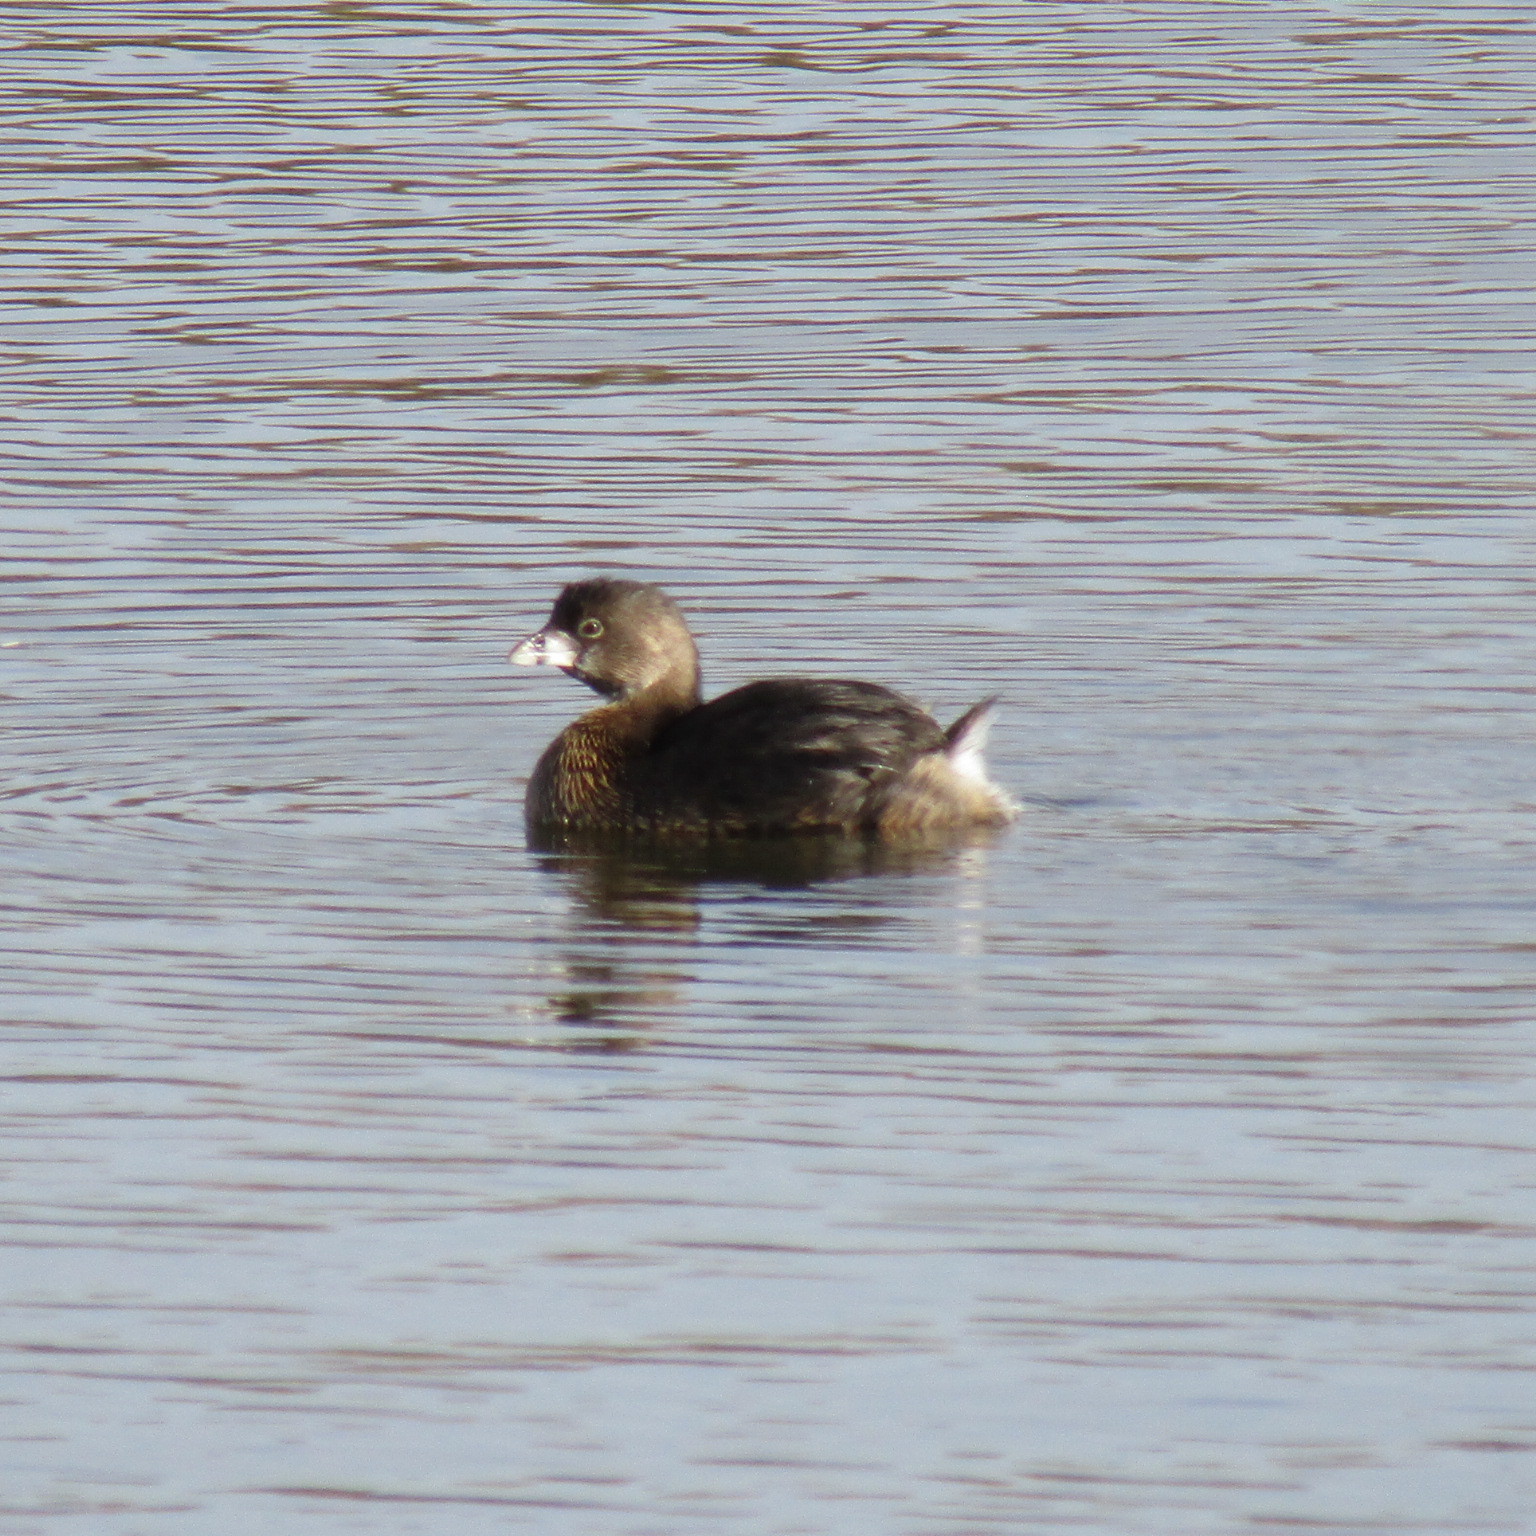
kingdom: Animalia
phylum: Chordata
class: Aves
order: Podicipediformes
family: Podicipedidae
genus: Podilymbus
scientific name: Podilymbus podiceps
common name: Pied-billed grebe
